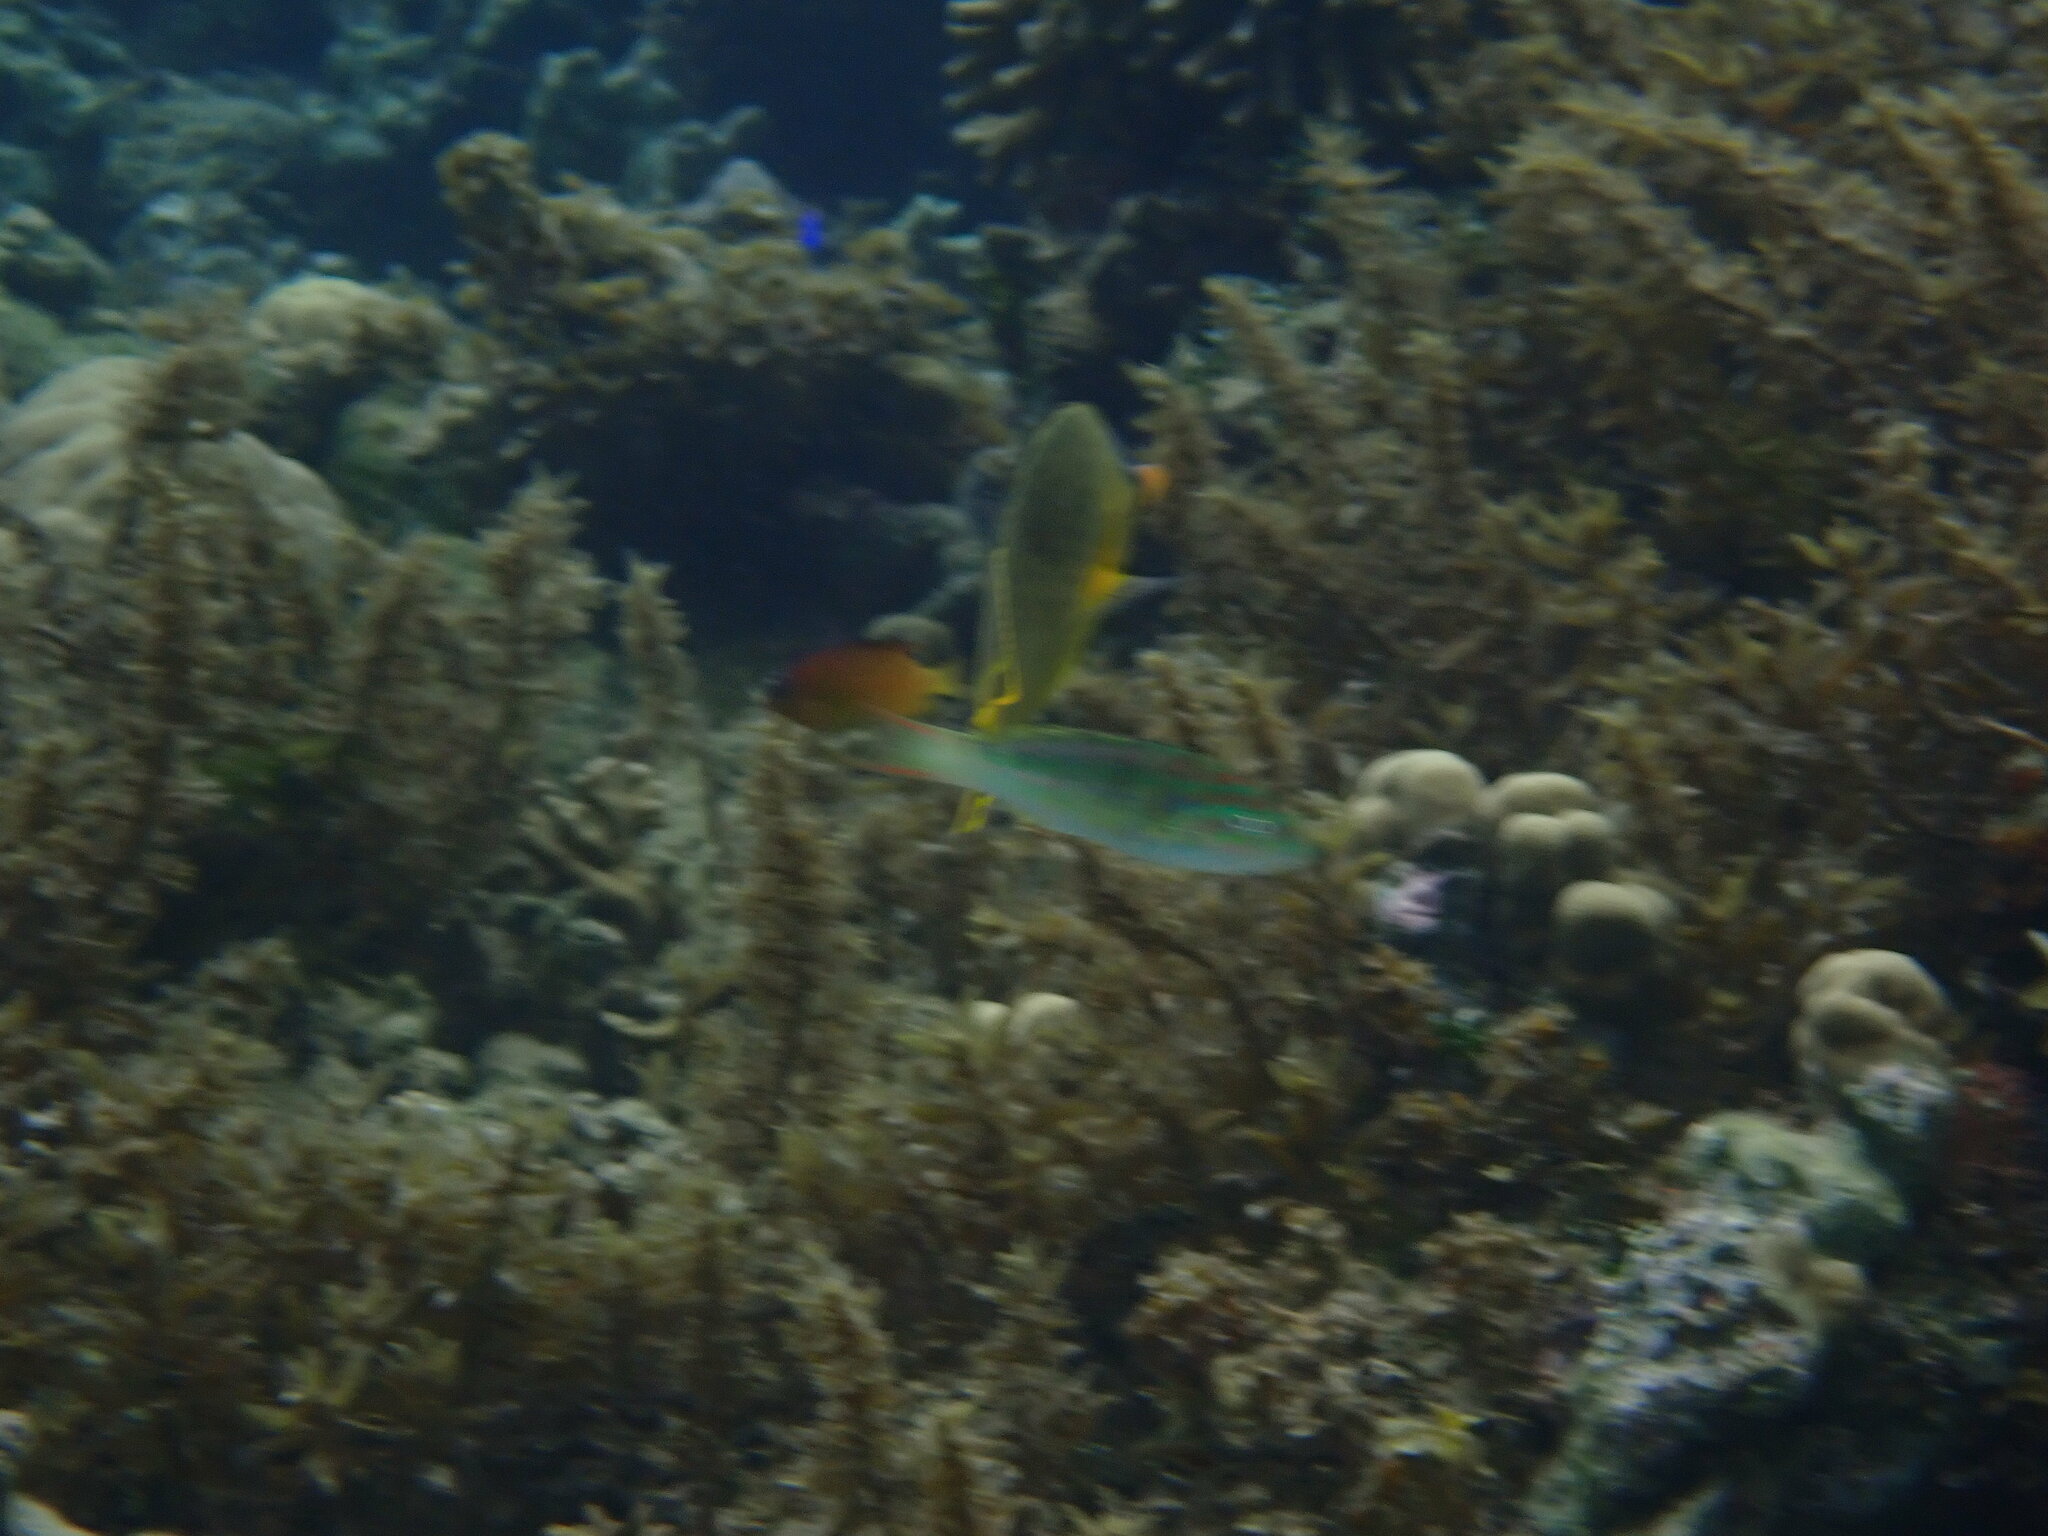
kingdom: Animalia
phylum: Chordata
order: Perciformes
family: Labridae
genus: Thalassoma
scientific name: Thalassoma hardwicke
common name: Sixbar wrasse
